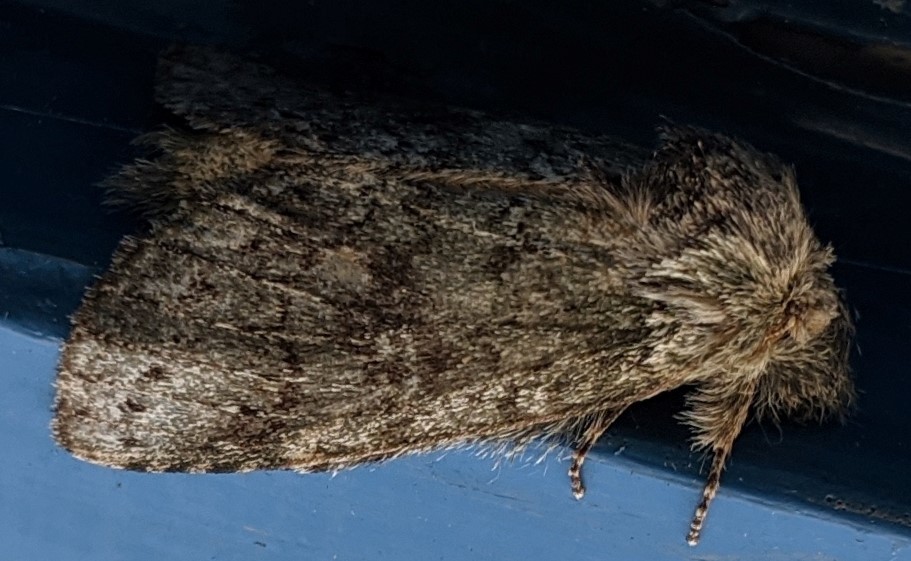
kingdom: Animalia
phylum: Arthropoda
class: Insecta
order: Lepidoptera
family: Notodontidae
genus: Disphragis
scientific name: Disphragis Cecrita guttivitta
